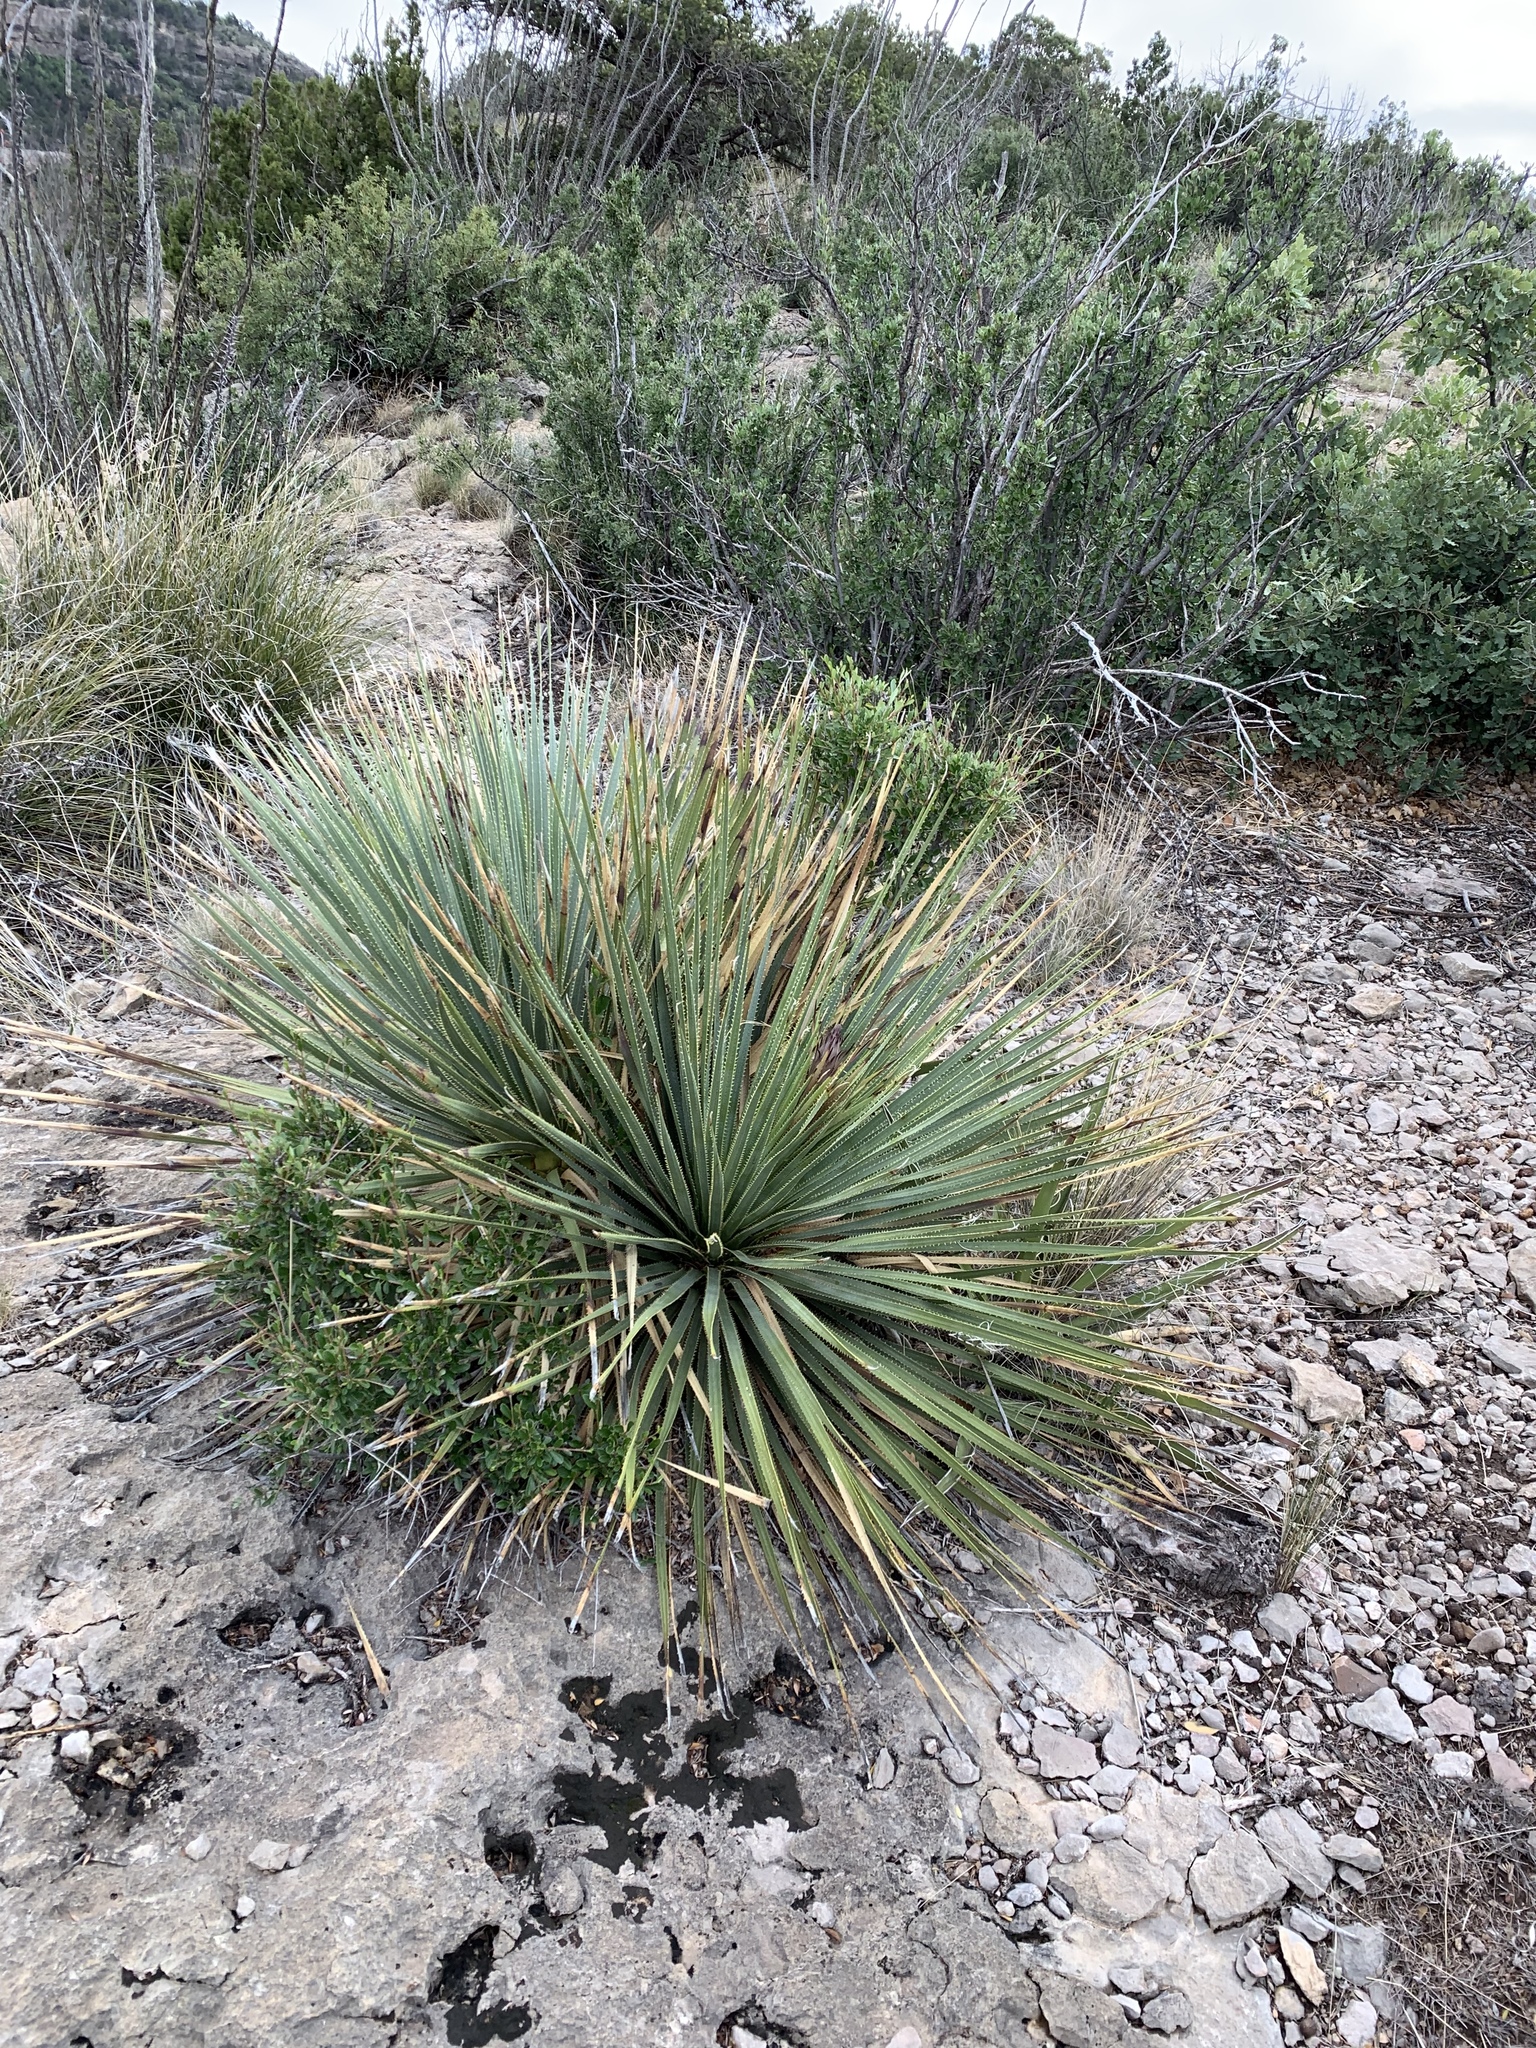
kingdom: Plantae
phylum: Tracheophyta
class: Liliopsida
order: Asparagales
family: Asparagaceae
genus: Dasylirion
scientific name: Dasylirion wheeleri
